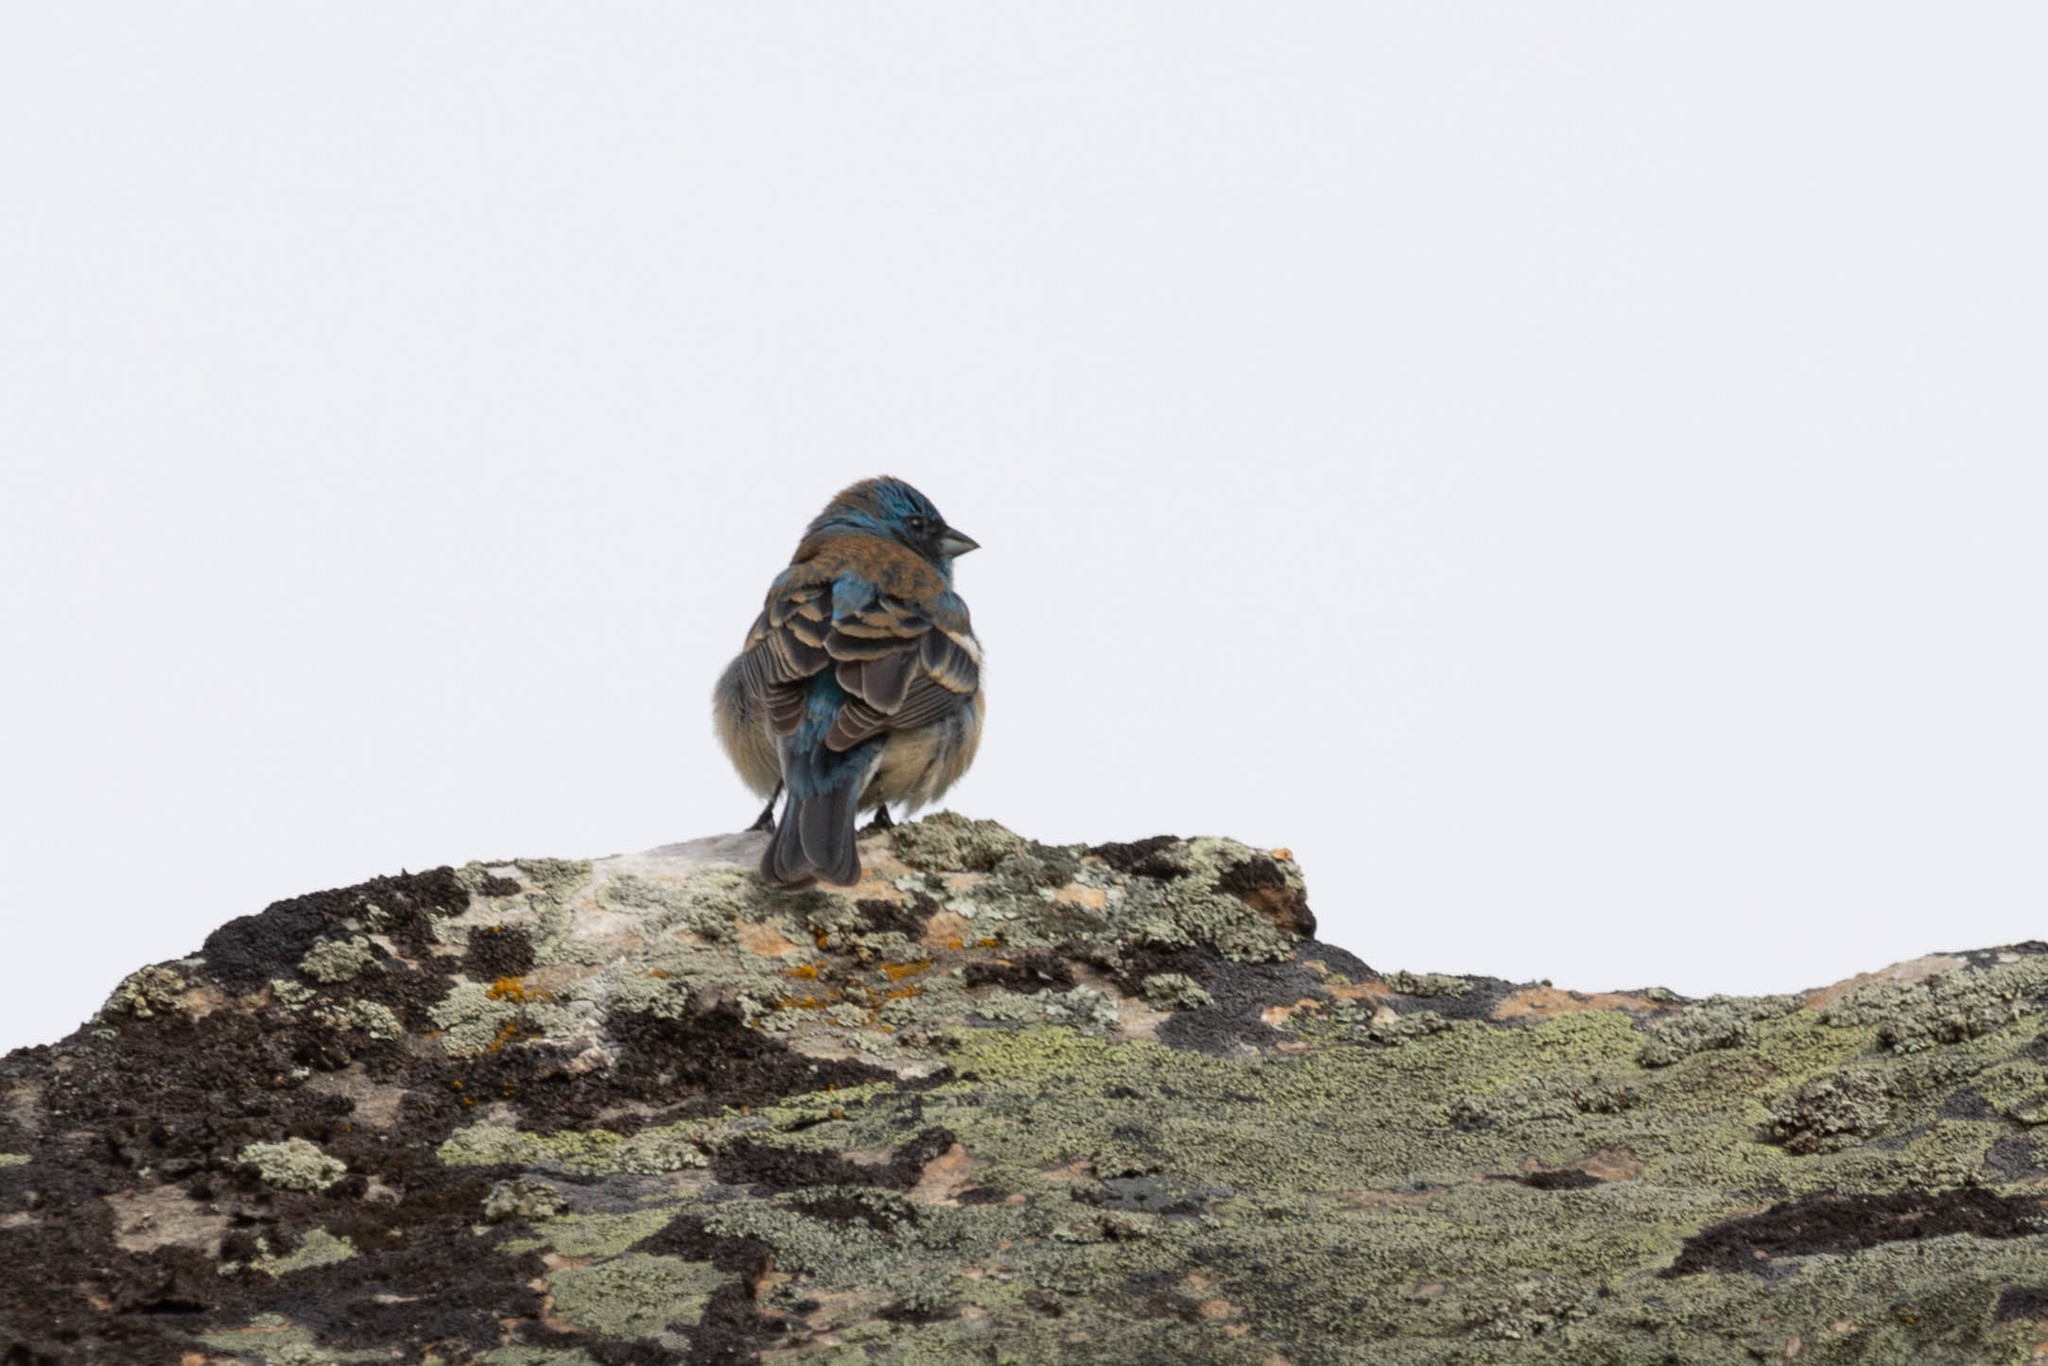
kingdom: Animalia
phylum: Chordata
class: Aves
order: Passeriformes
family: Cardinalidae
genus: Passerina
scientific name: Passerina amoena
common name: Lazuli bunting
